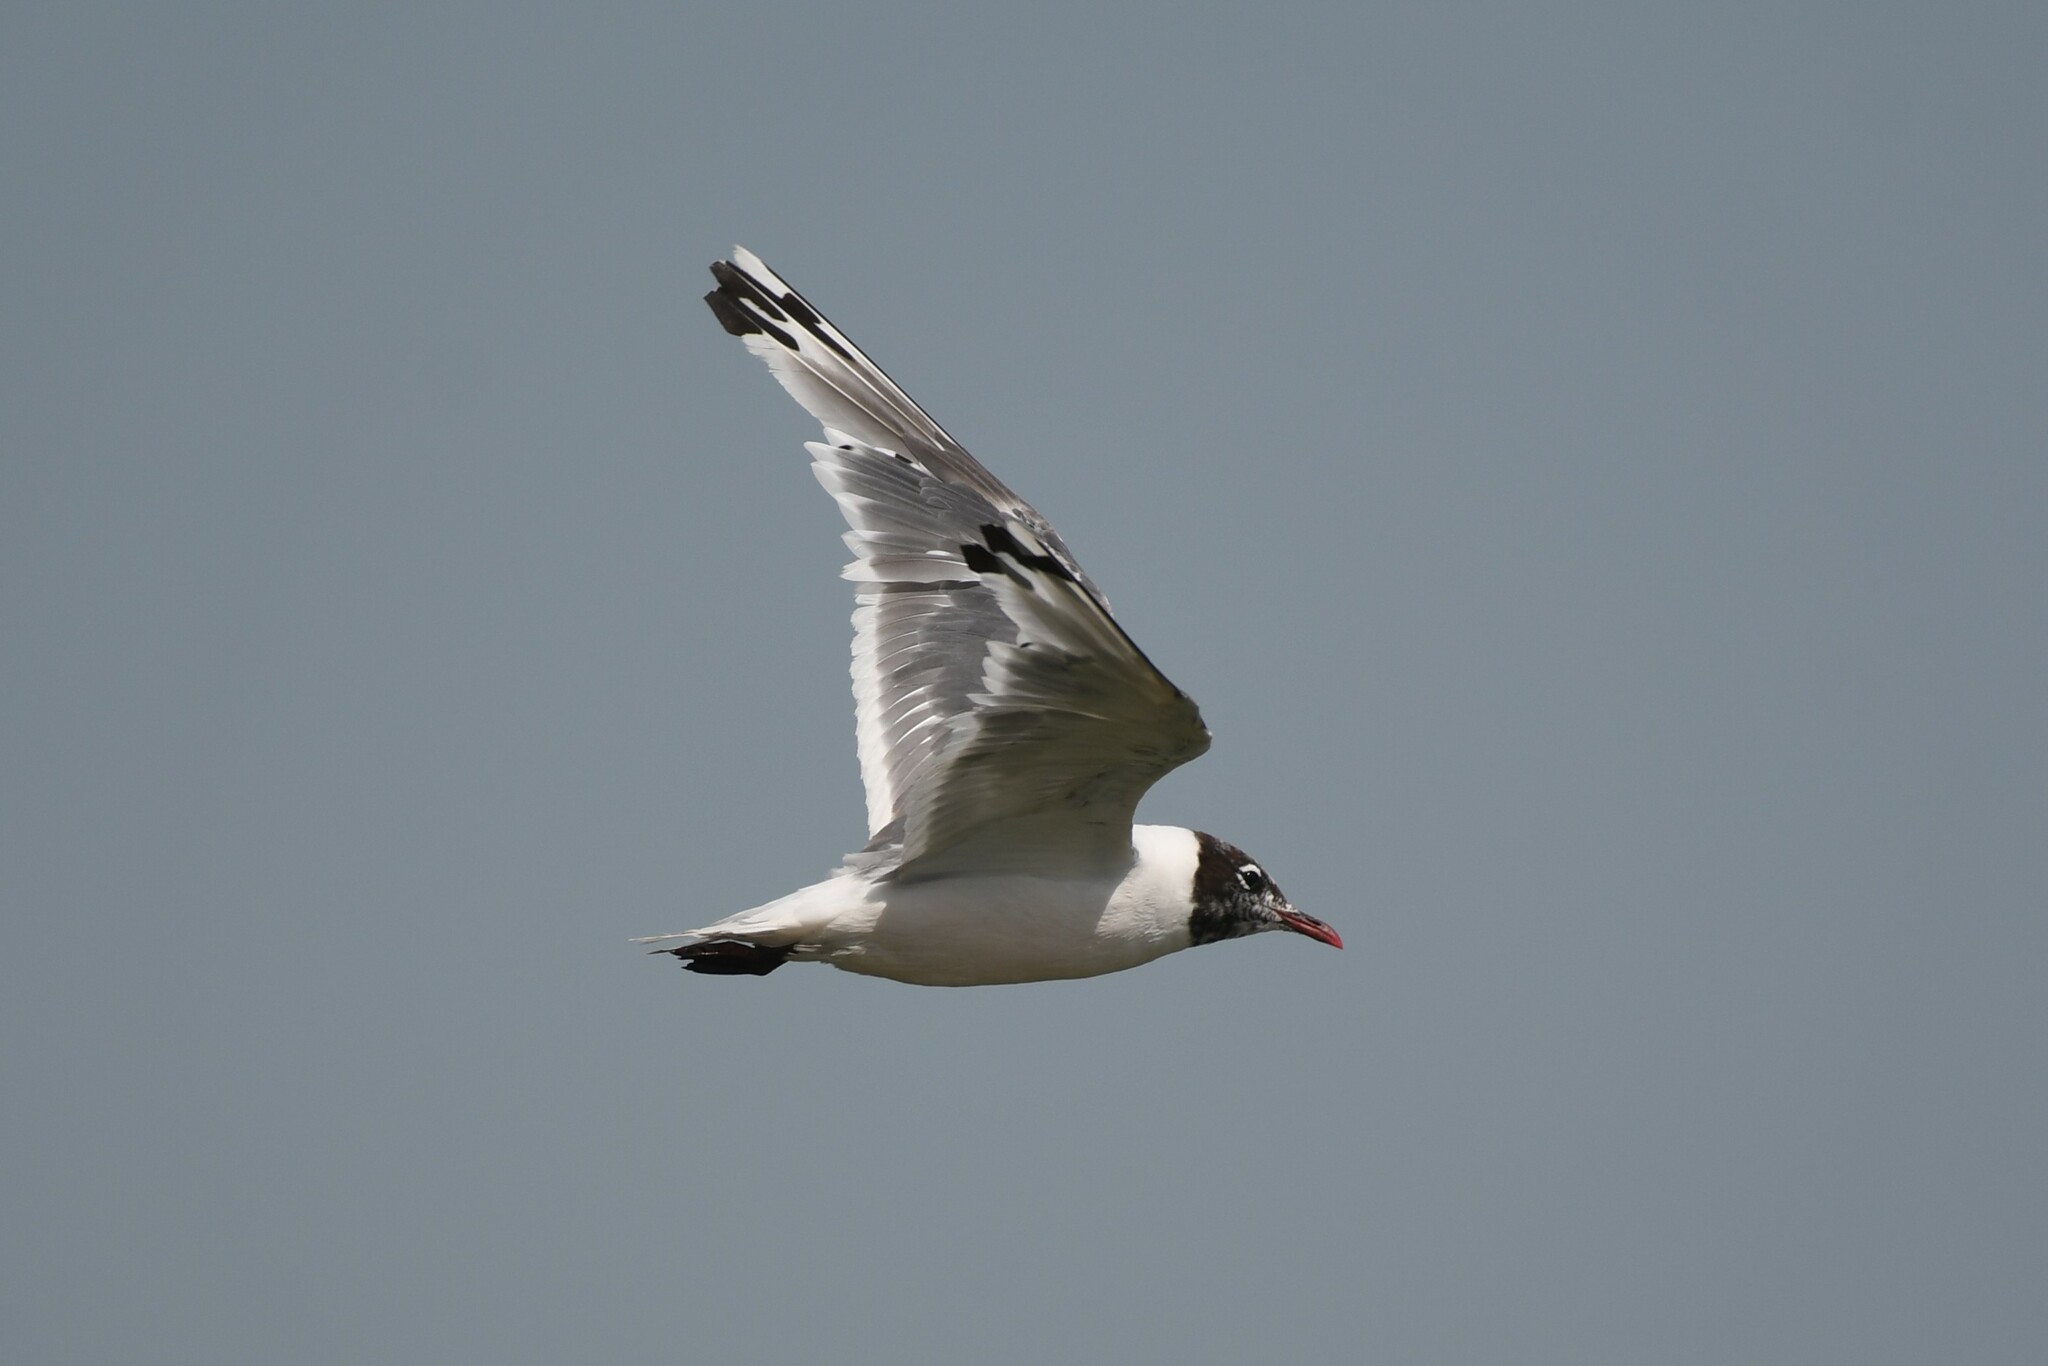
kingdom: Animalia
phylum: Chordata
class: Aves
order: Charadriiformes
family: Laridae
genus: Leucophaeus
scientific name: Leucophaeus pipixcan
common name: Franklin's gull
